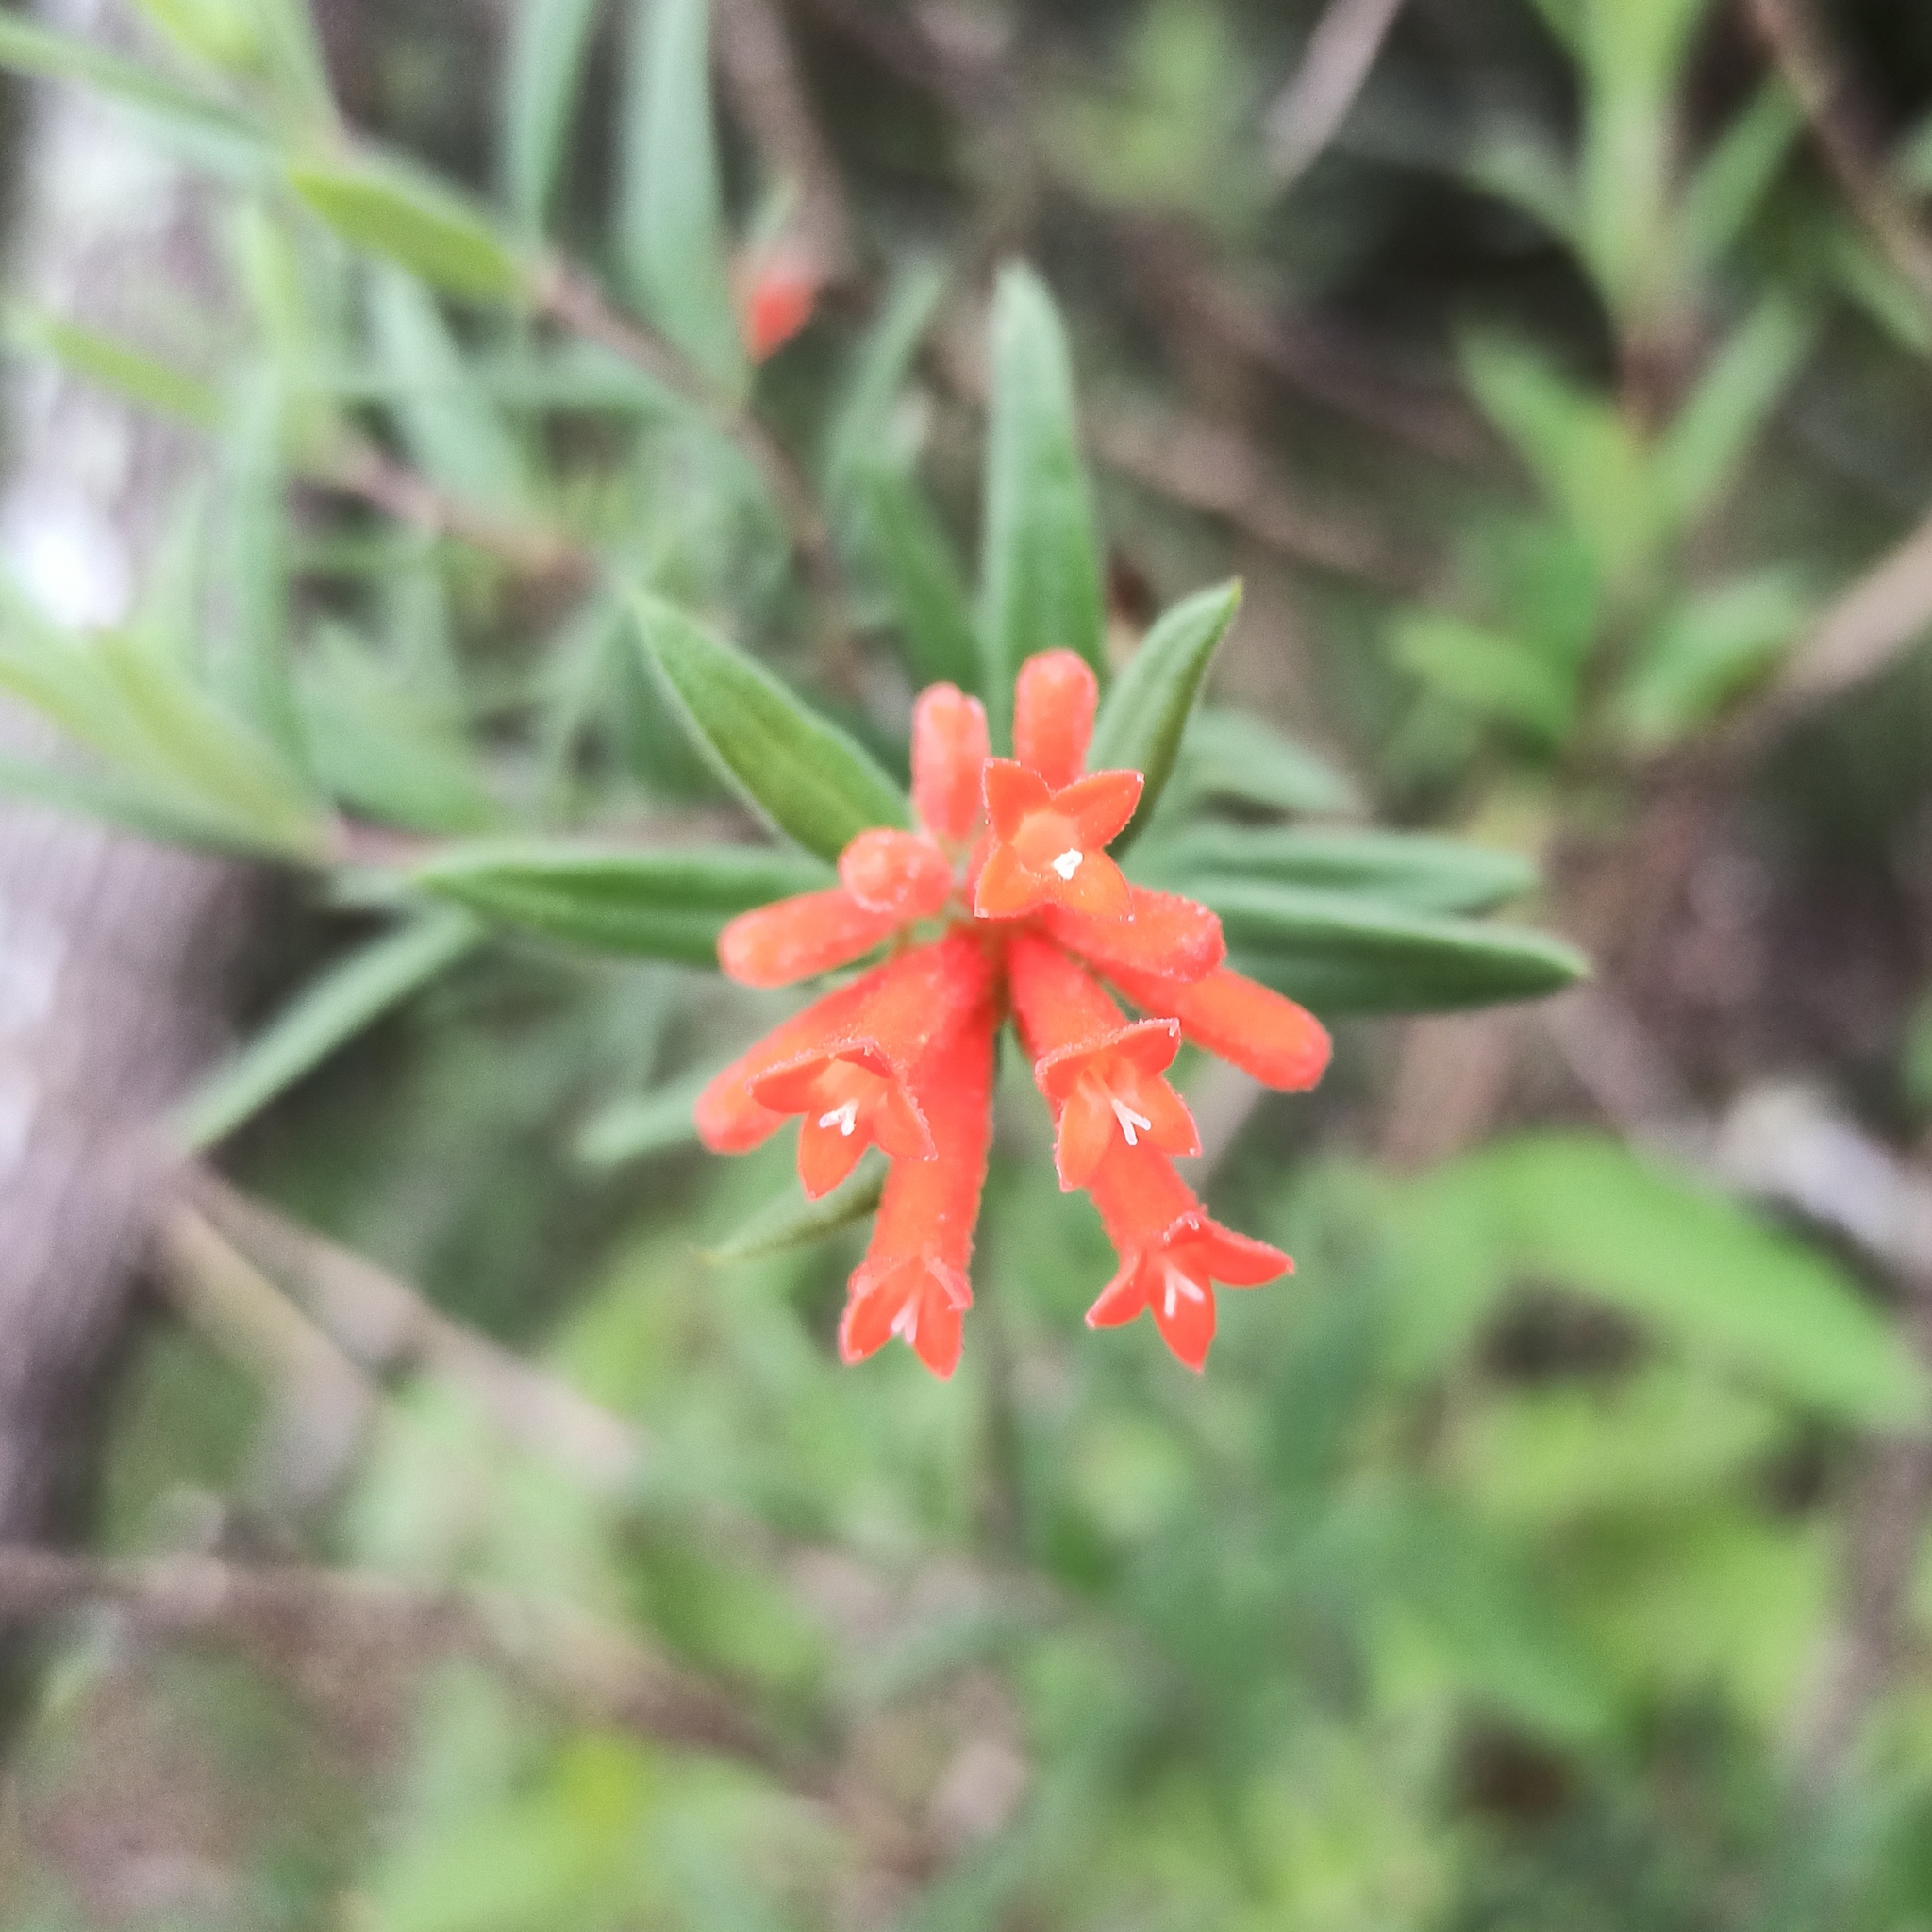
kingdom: Plantae
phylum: Tracheophyta
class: Magnoliopsida
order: Gentianales
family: Rubiaceae
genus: Bouvardia
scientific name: Bouvardia ternifolia
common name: Scarlet bouvardia
